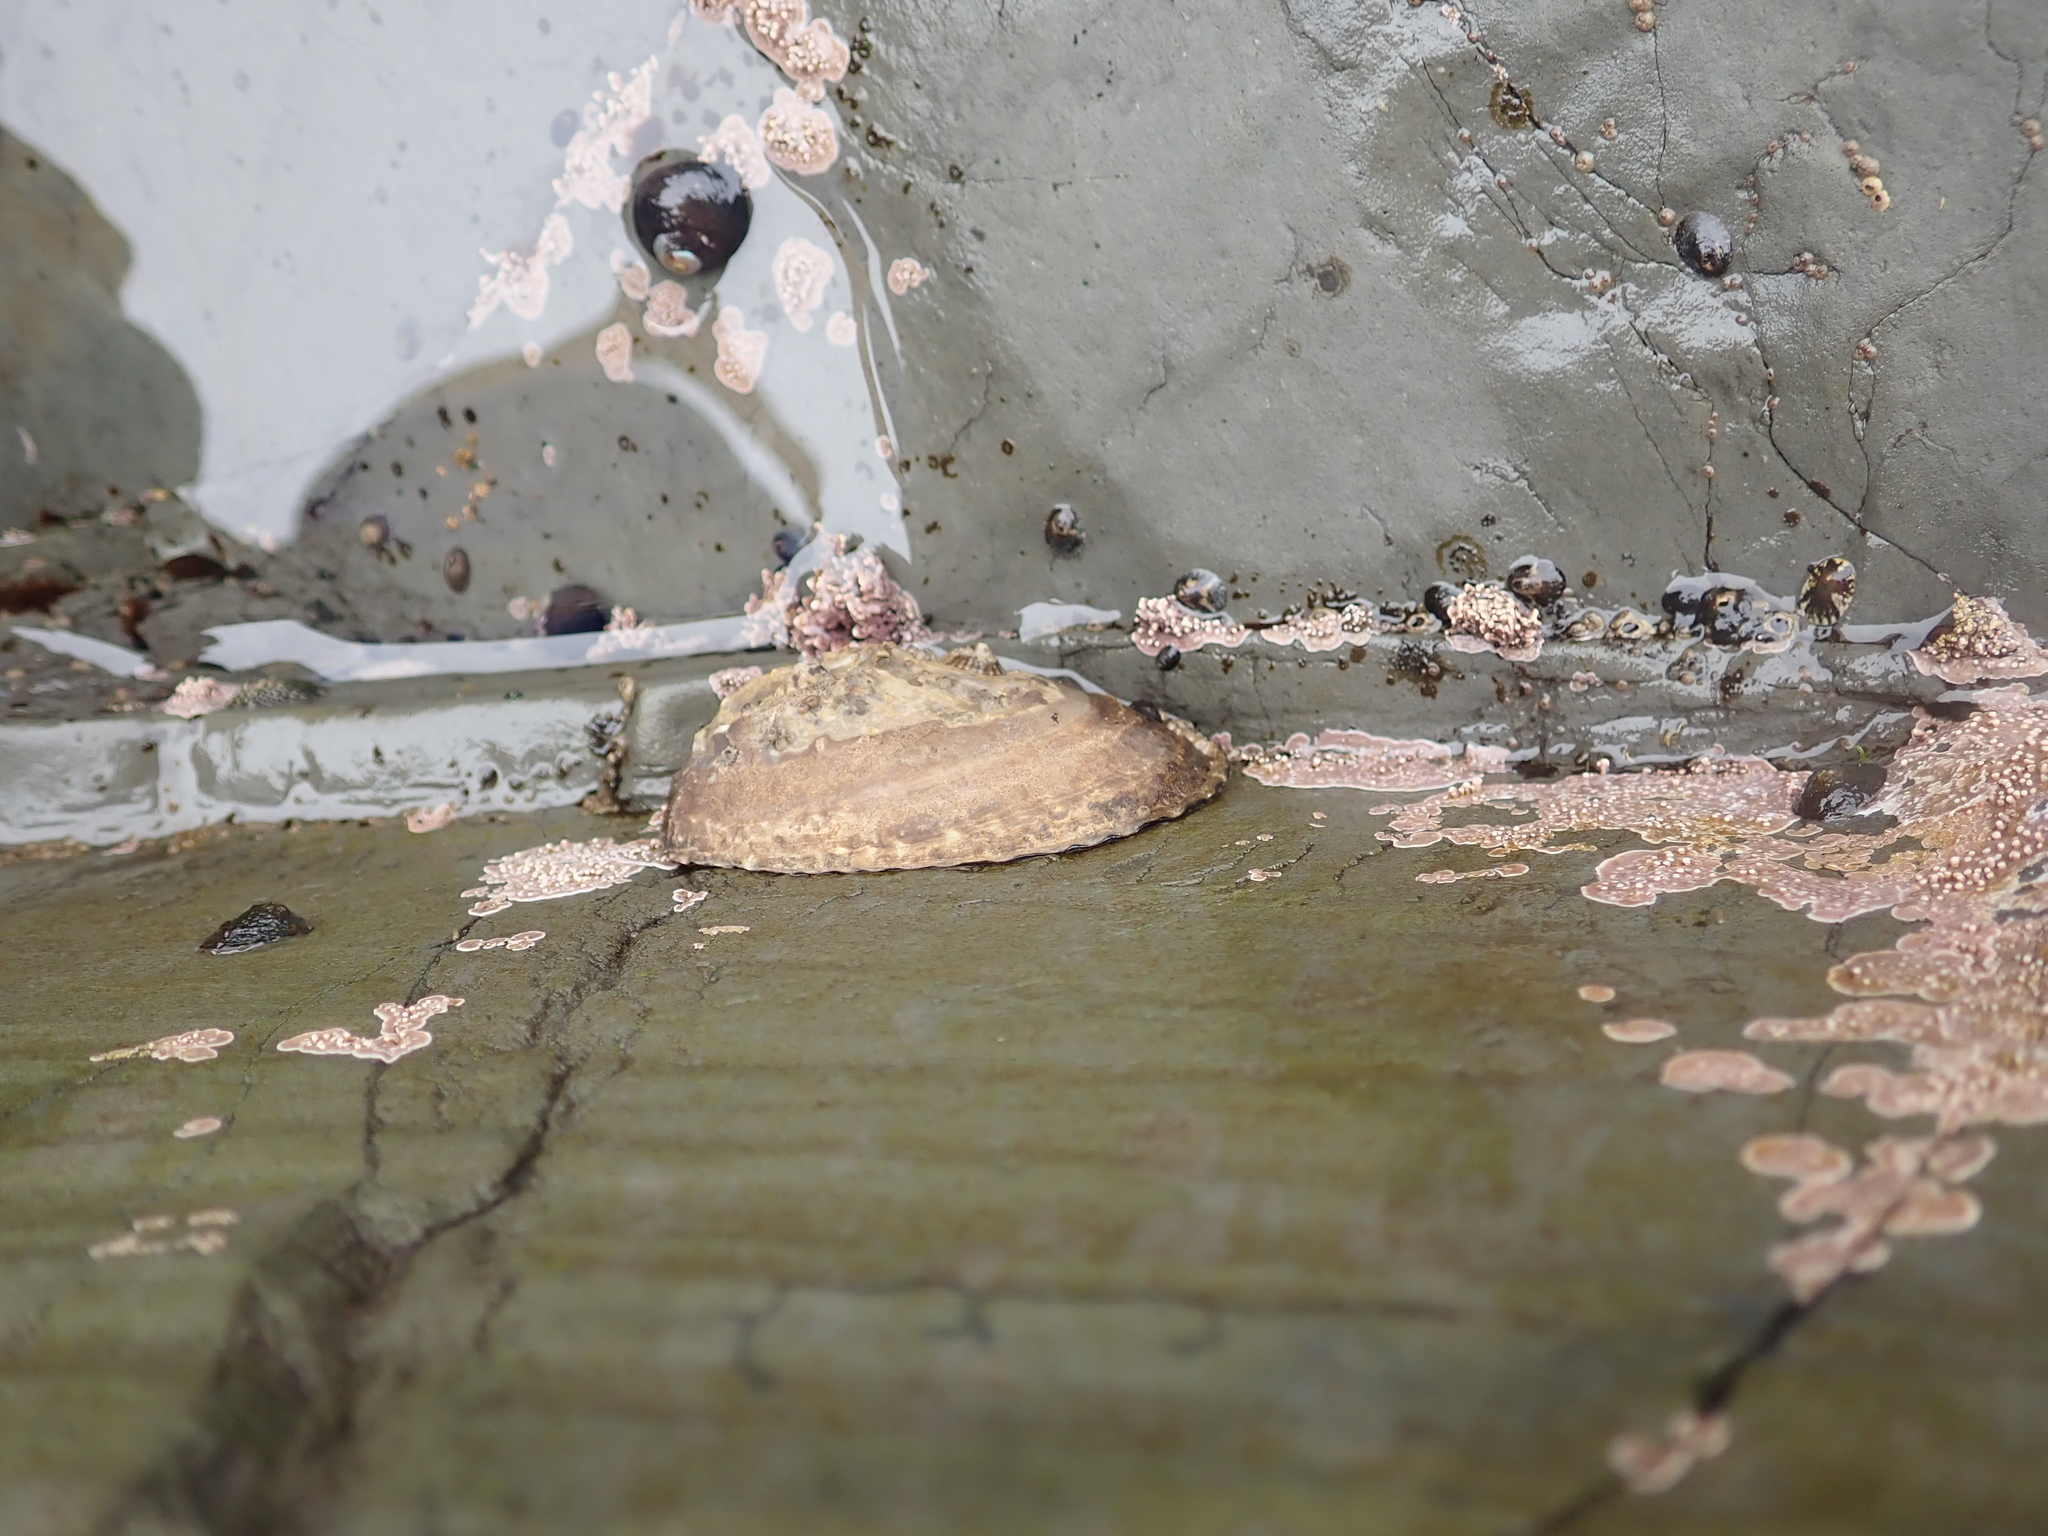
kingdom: Animalia
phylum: Mollusca
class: Gastropoda
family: Lottiidae
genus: Lottia
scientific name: Lottia gigantea
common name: Owl limpet
